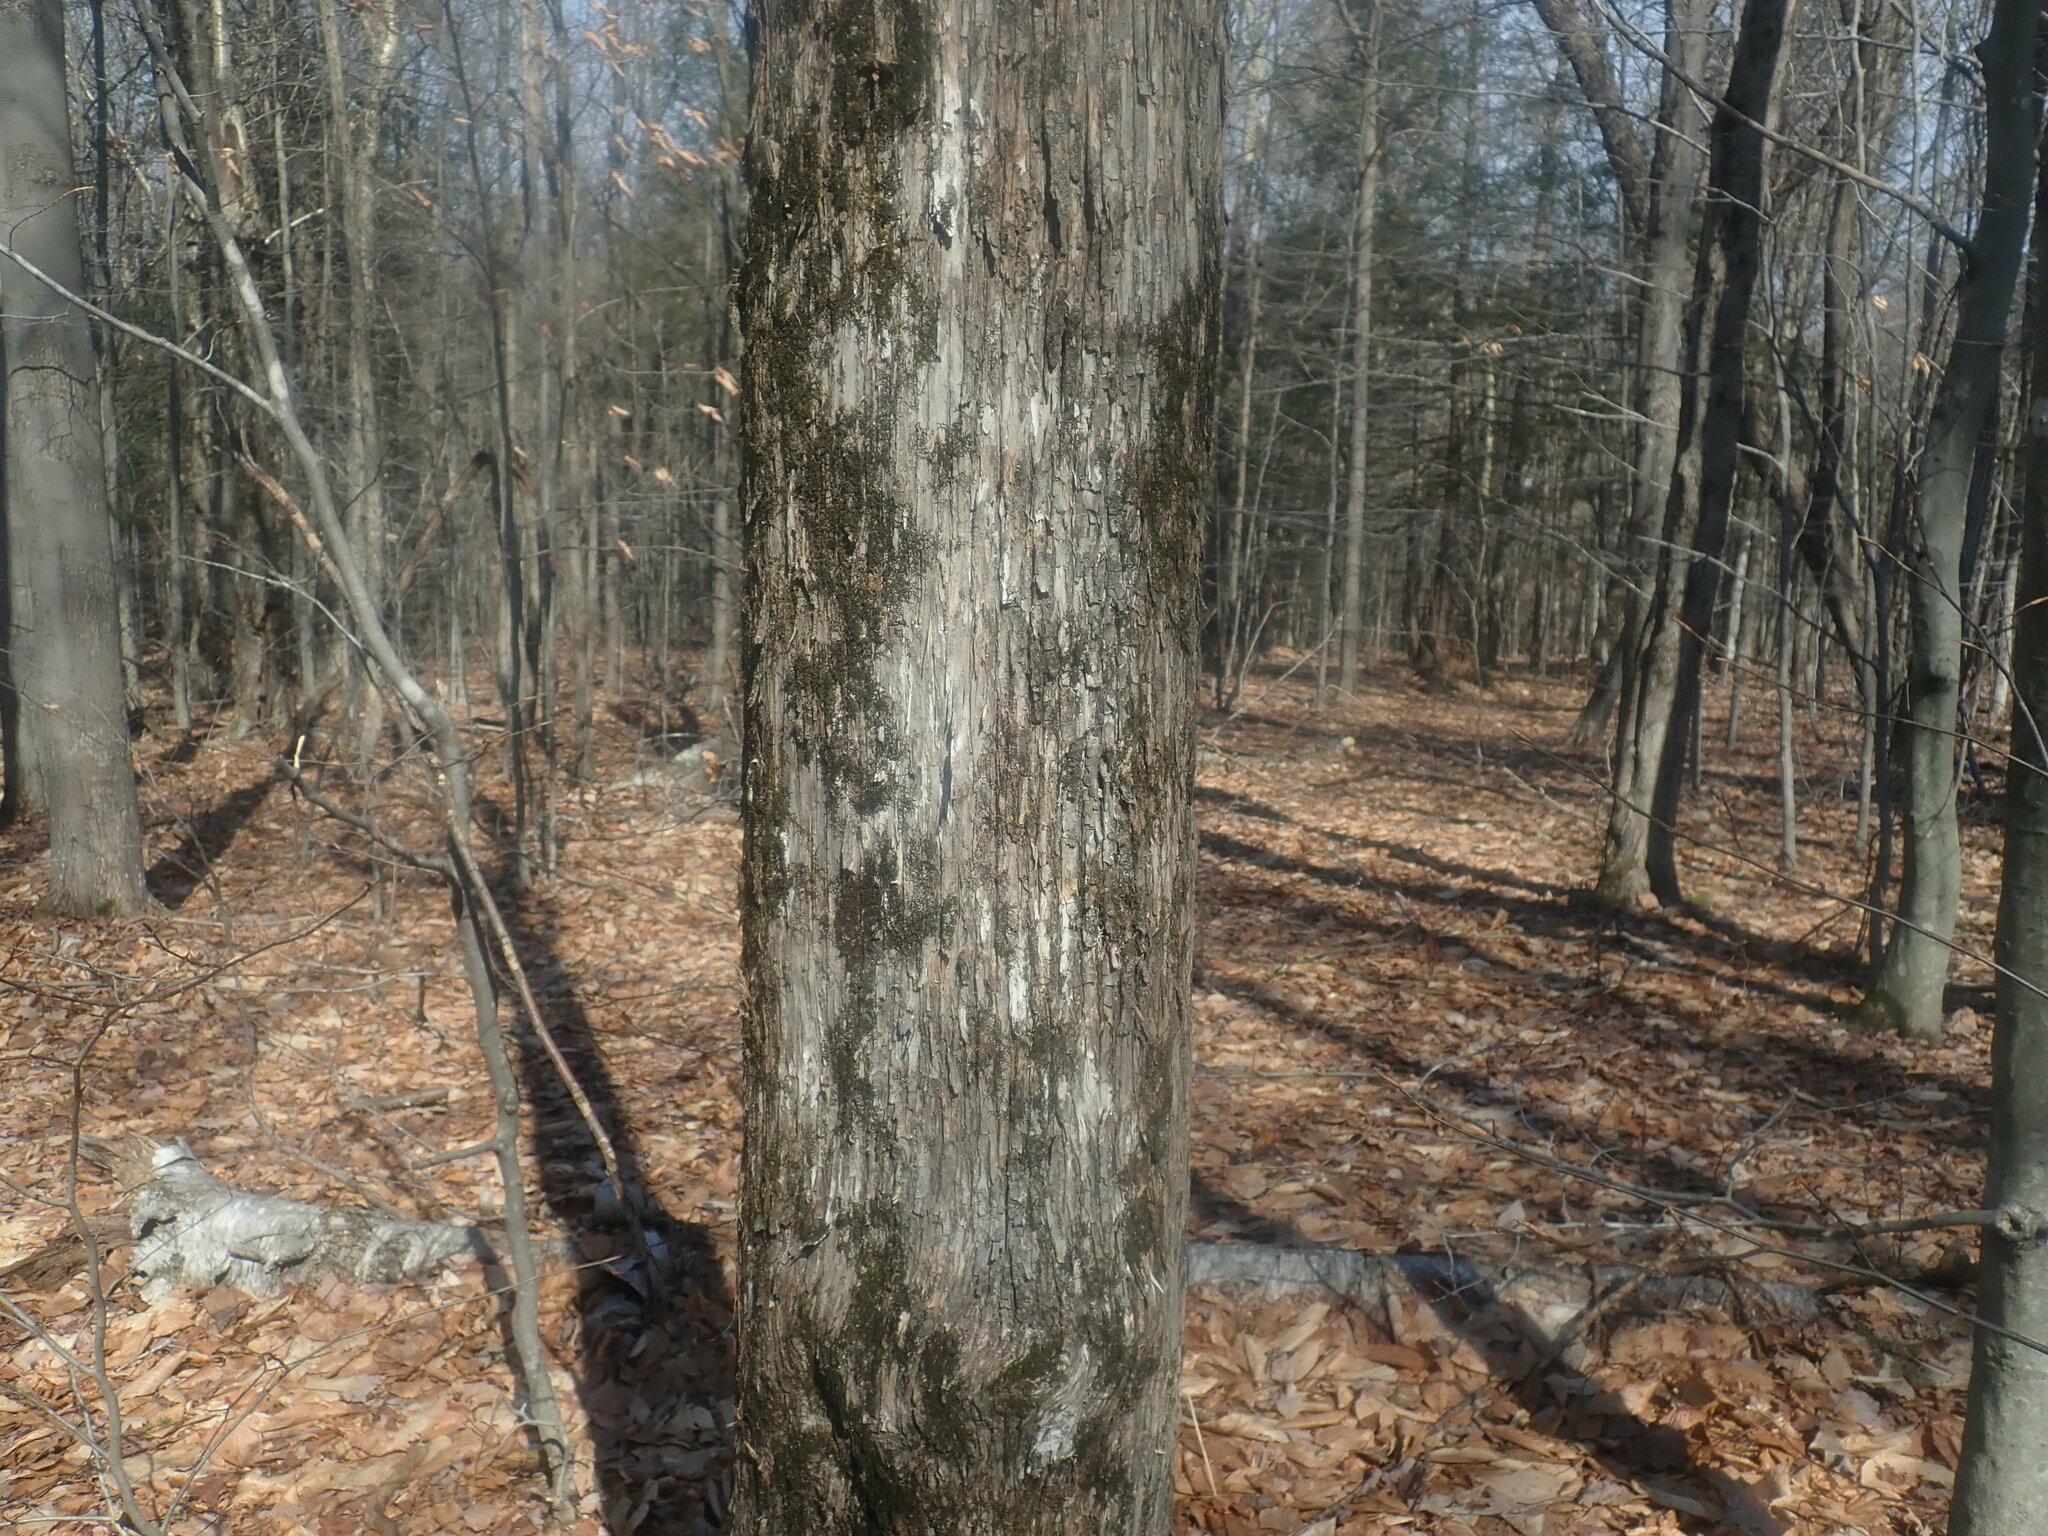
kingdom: Plantae
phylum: Tracheophyta
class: Magnoliopsida
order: Fagales
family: Betulaceae
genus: Ostrya
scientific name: Ostrya virginiana
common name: Ironwood
